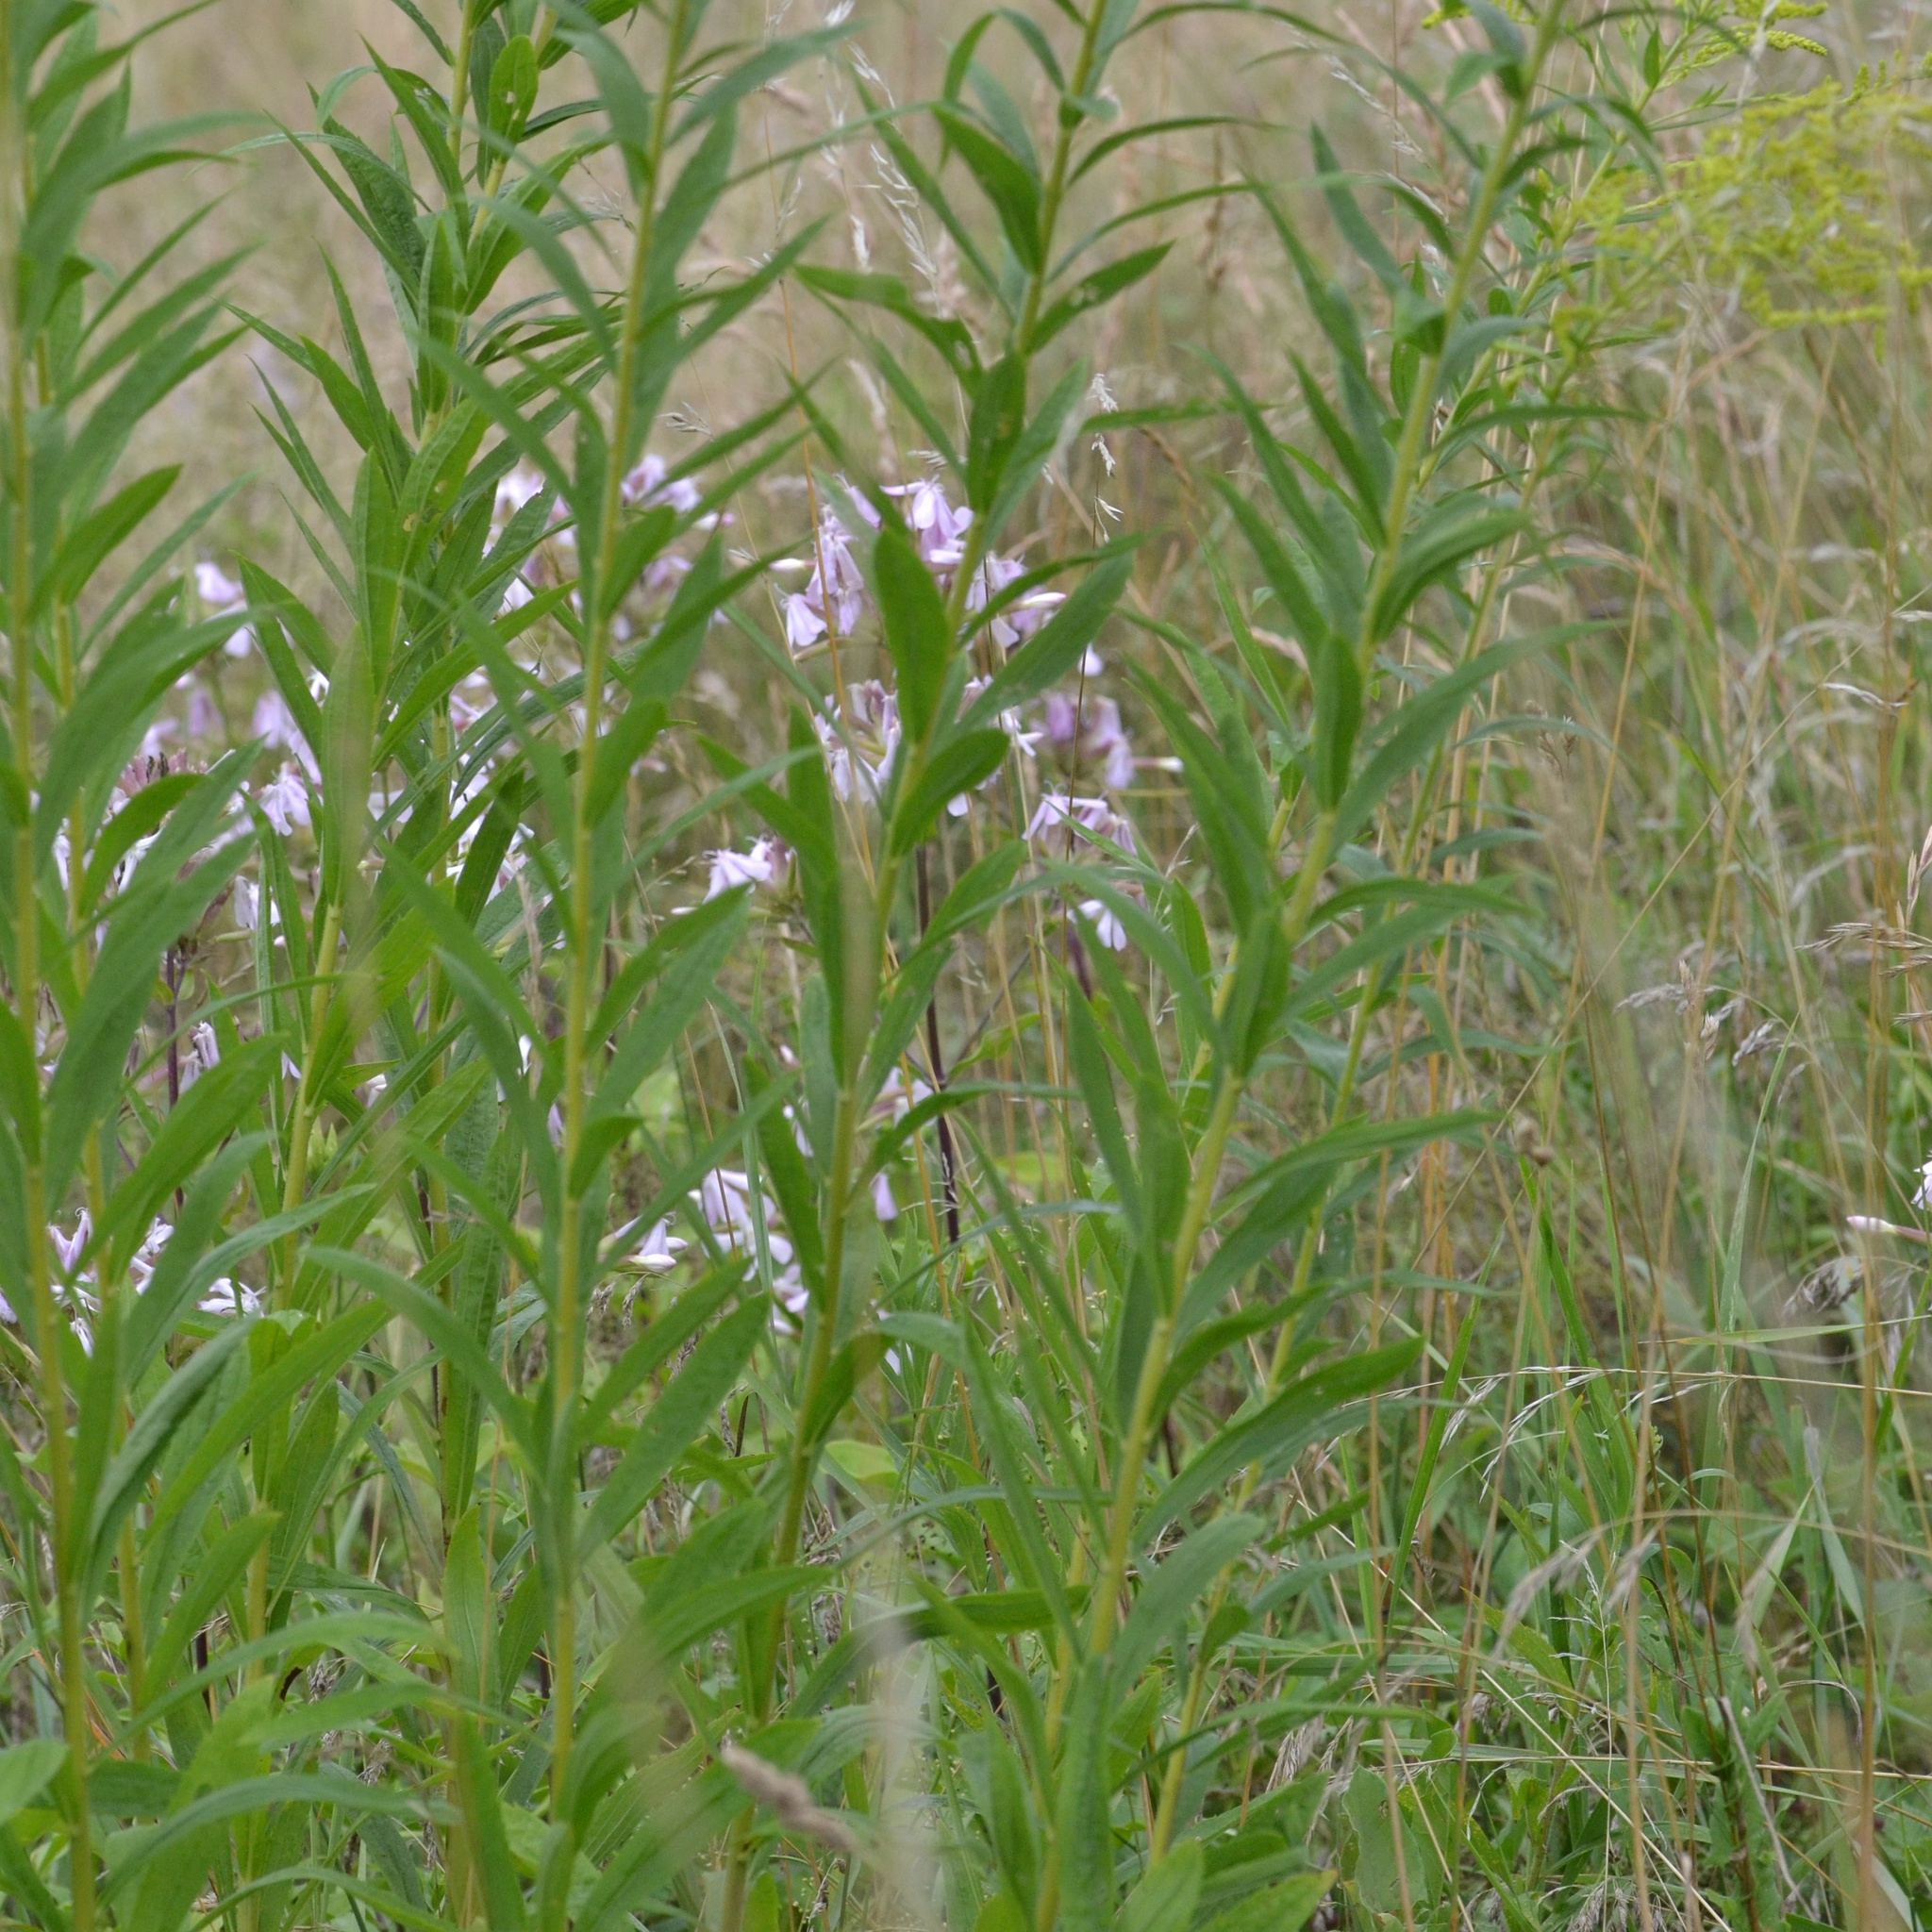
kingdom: Plantae
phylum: Tracheophyta
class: Magnoliopsida
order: Asterales
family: Asteraceae
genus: Solidago
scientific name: Solidago canadensis
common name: Canada goldenrod
